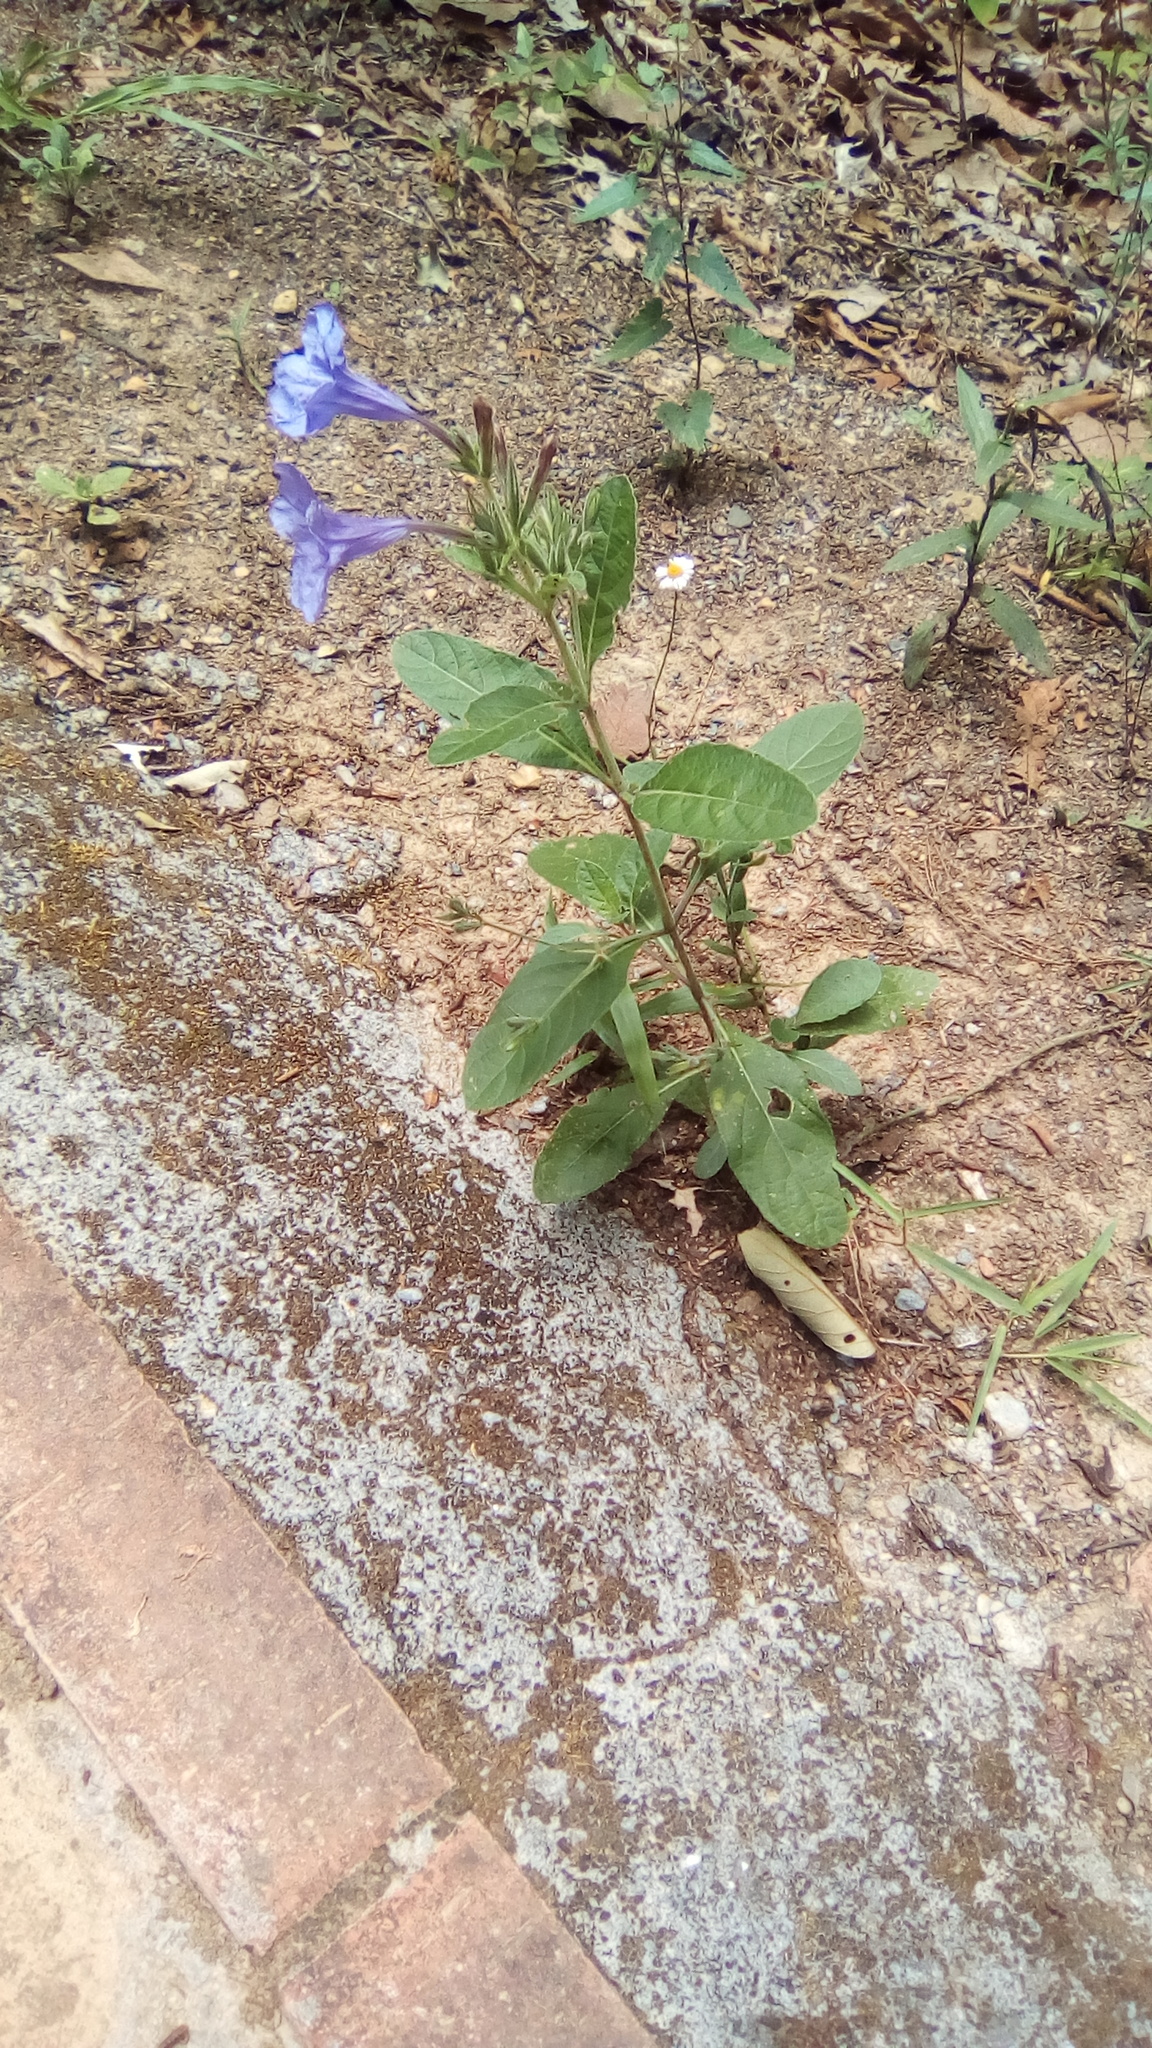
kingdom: Plantae
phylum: Tracheophyta
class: Magnoliopsida
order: Lamiales
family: Acanthaceae
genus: Ruellia
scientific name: Ruellia ciliatiflora
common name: Hairyflower wild petunia
